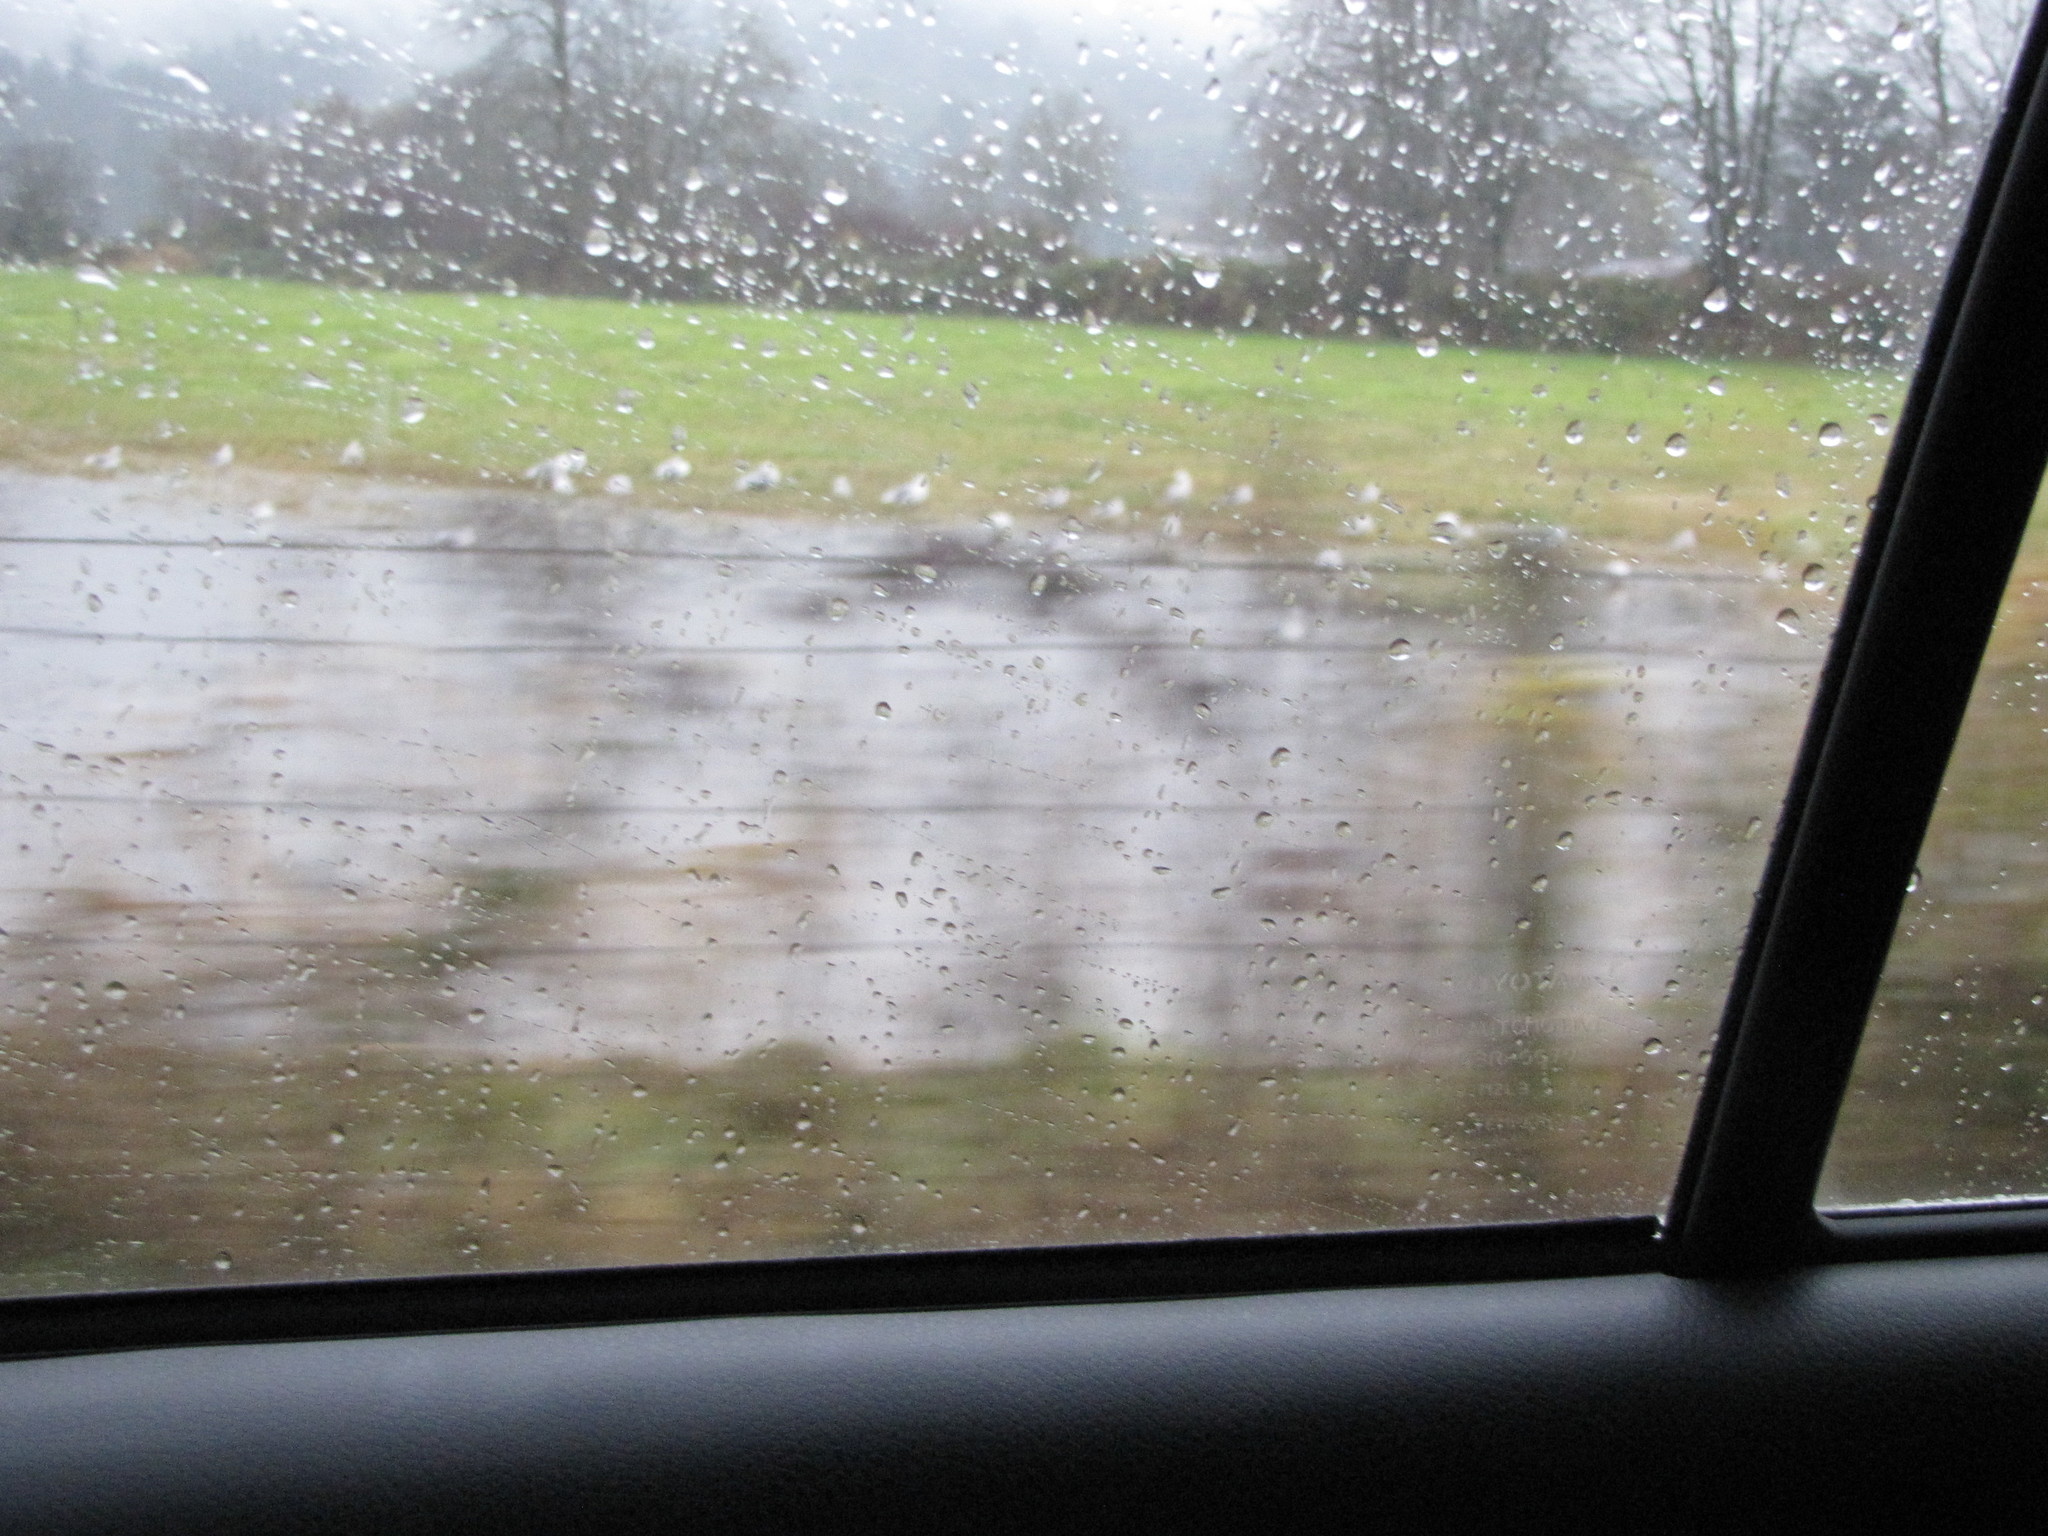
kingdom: Animalia
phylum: Chordata
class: Aves
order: Charadriiformes
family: Laridae
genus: Larus
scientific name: Larus
